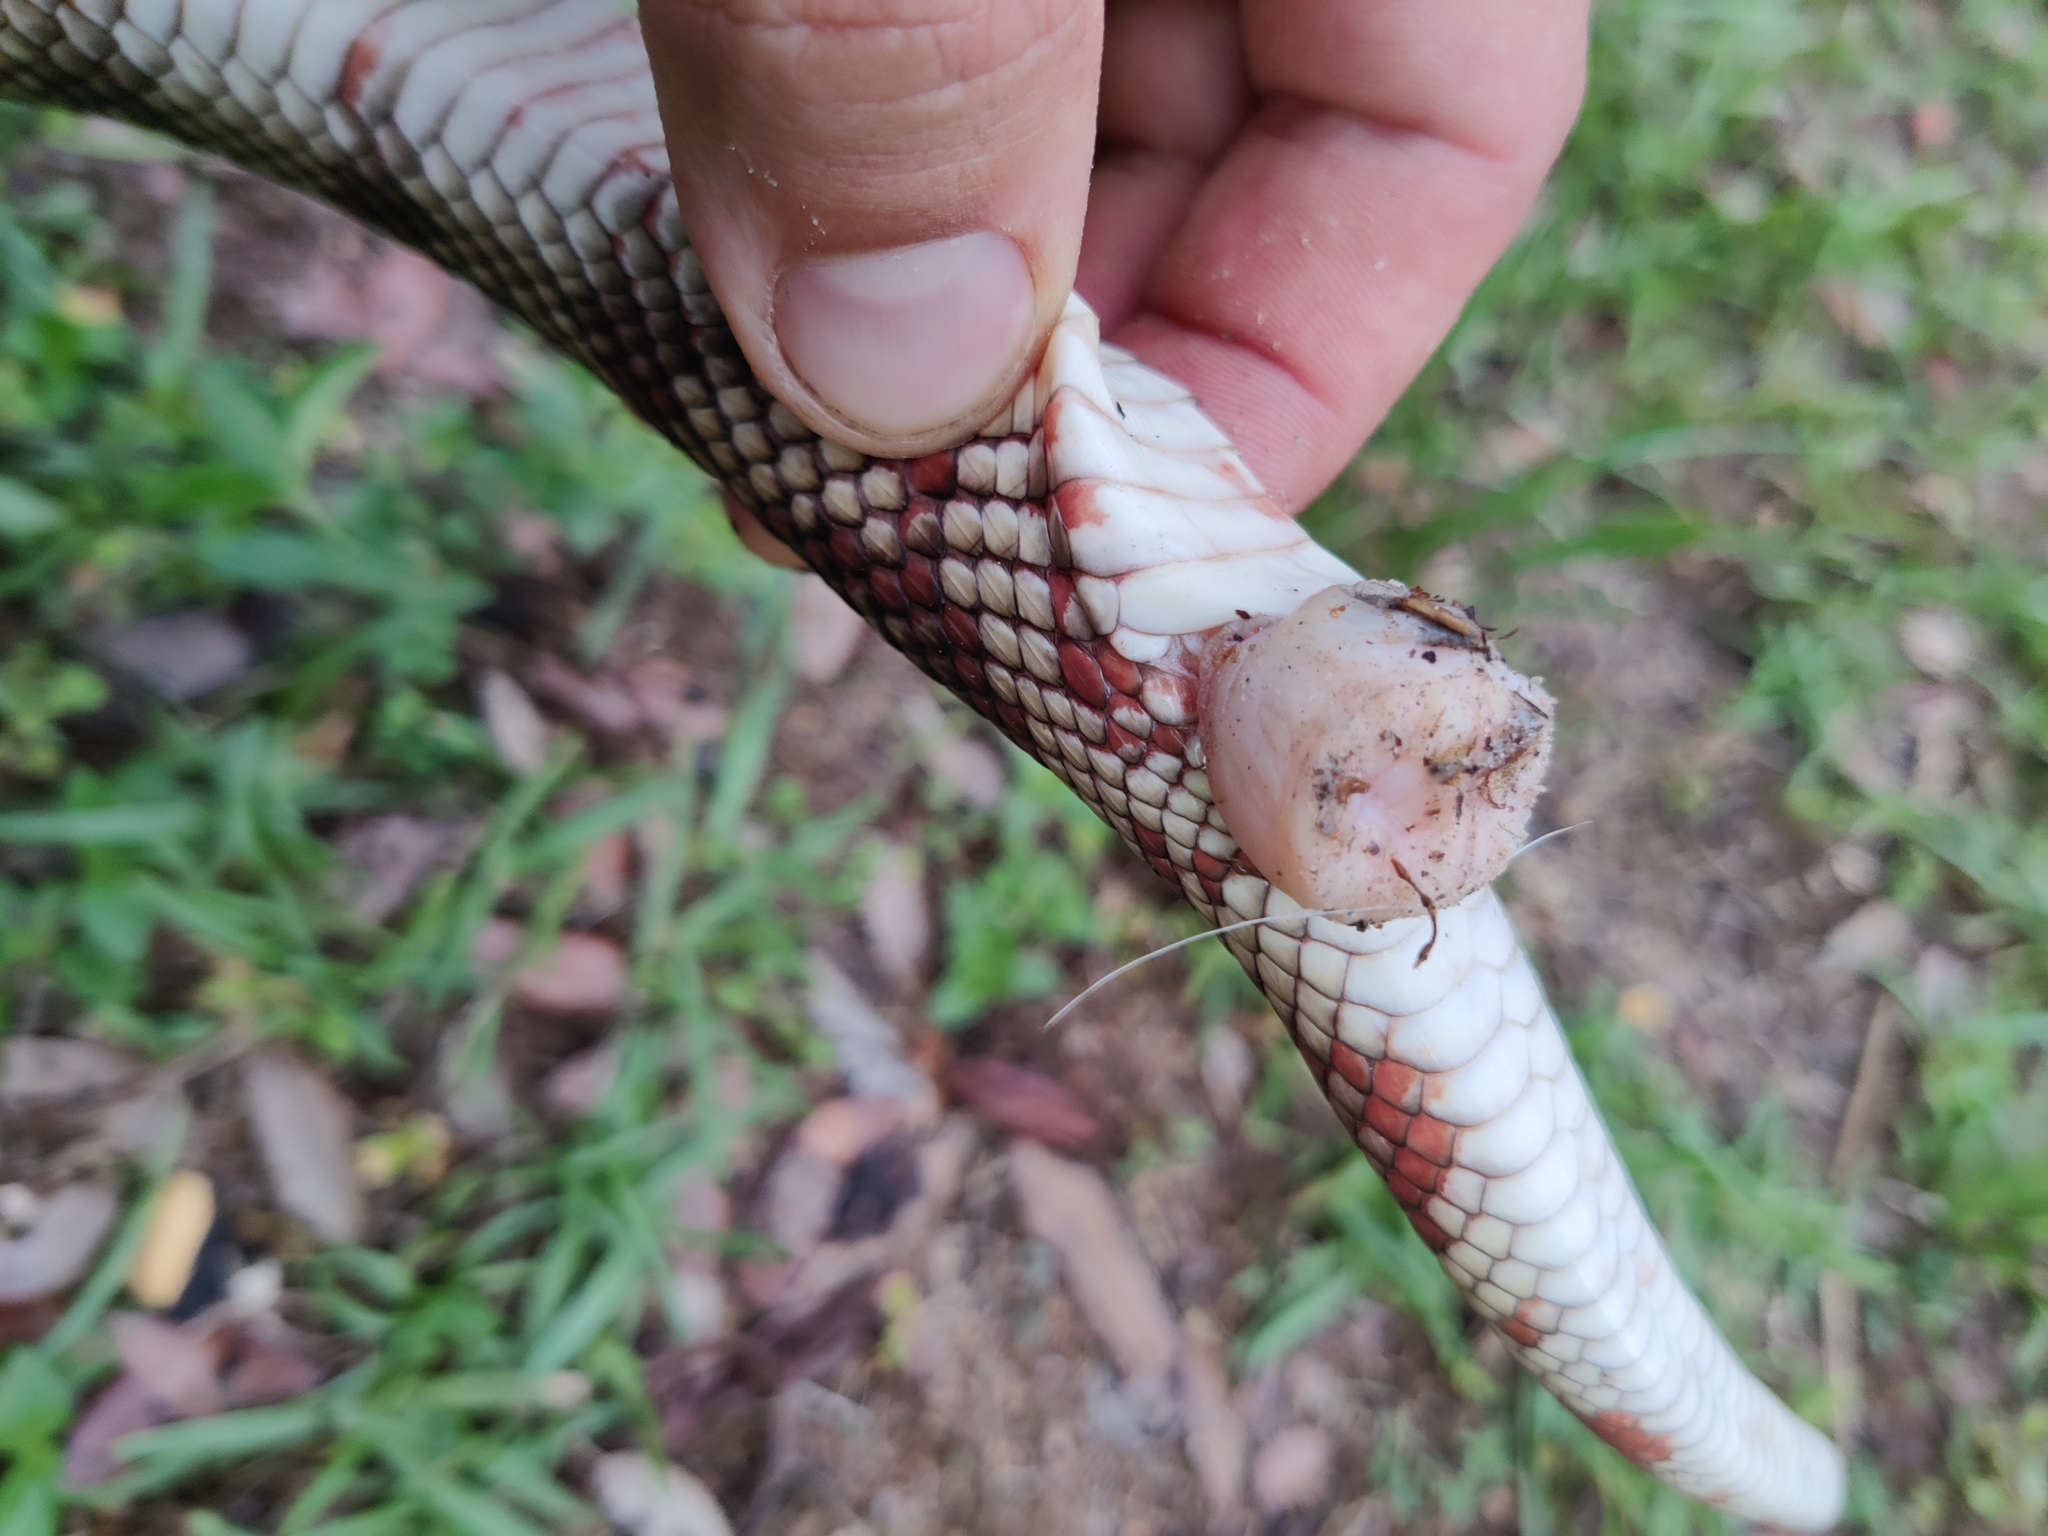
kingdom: Animalia
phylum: Chordata
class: Squamata
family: Colubridae
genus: Pituophis
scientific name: Pituophis melanoleucus
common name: Pine snake
